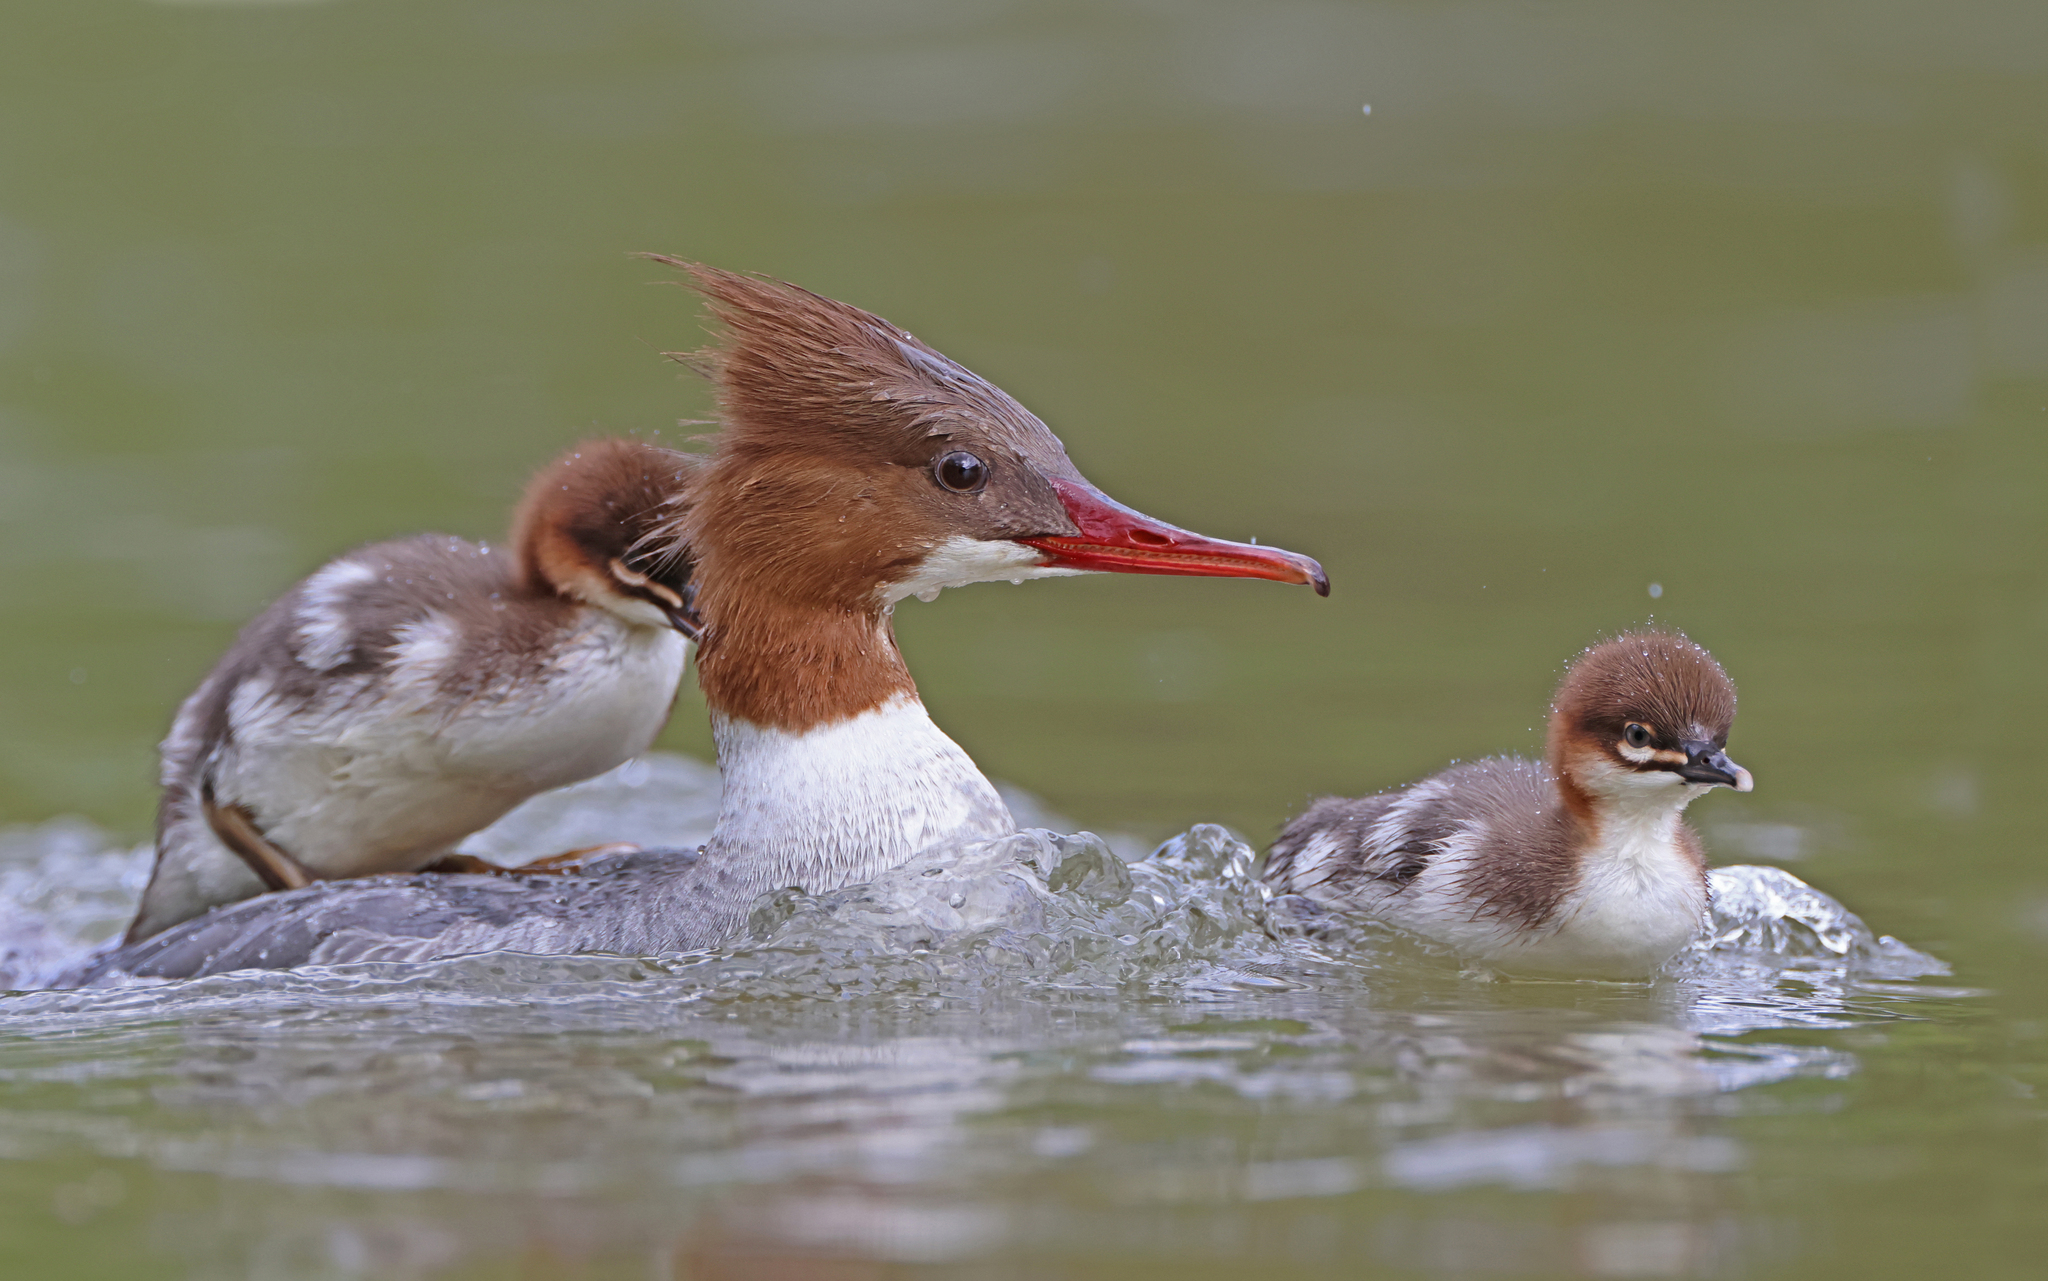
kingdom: Animalia
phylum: Chordata
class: Aves
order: Anseriformes
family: Anatidae
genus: Mergus
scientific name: Mergus merganser
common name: Common merganser
